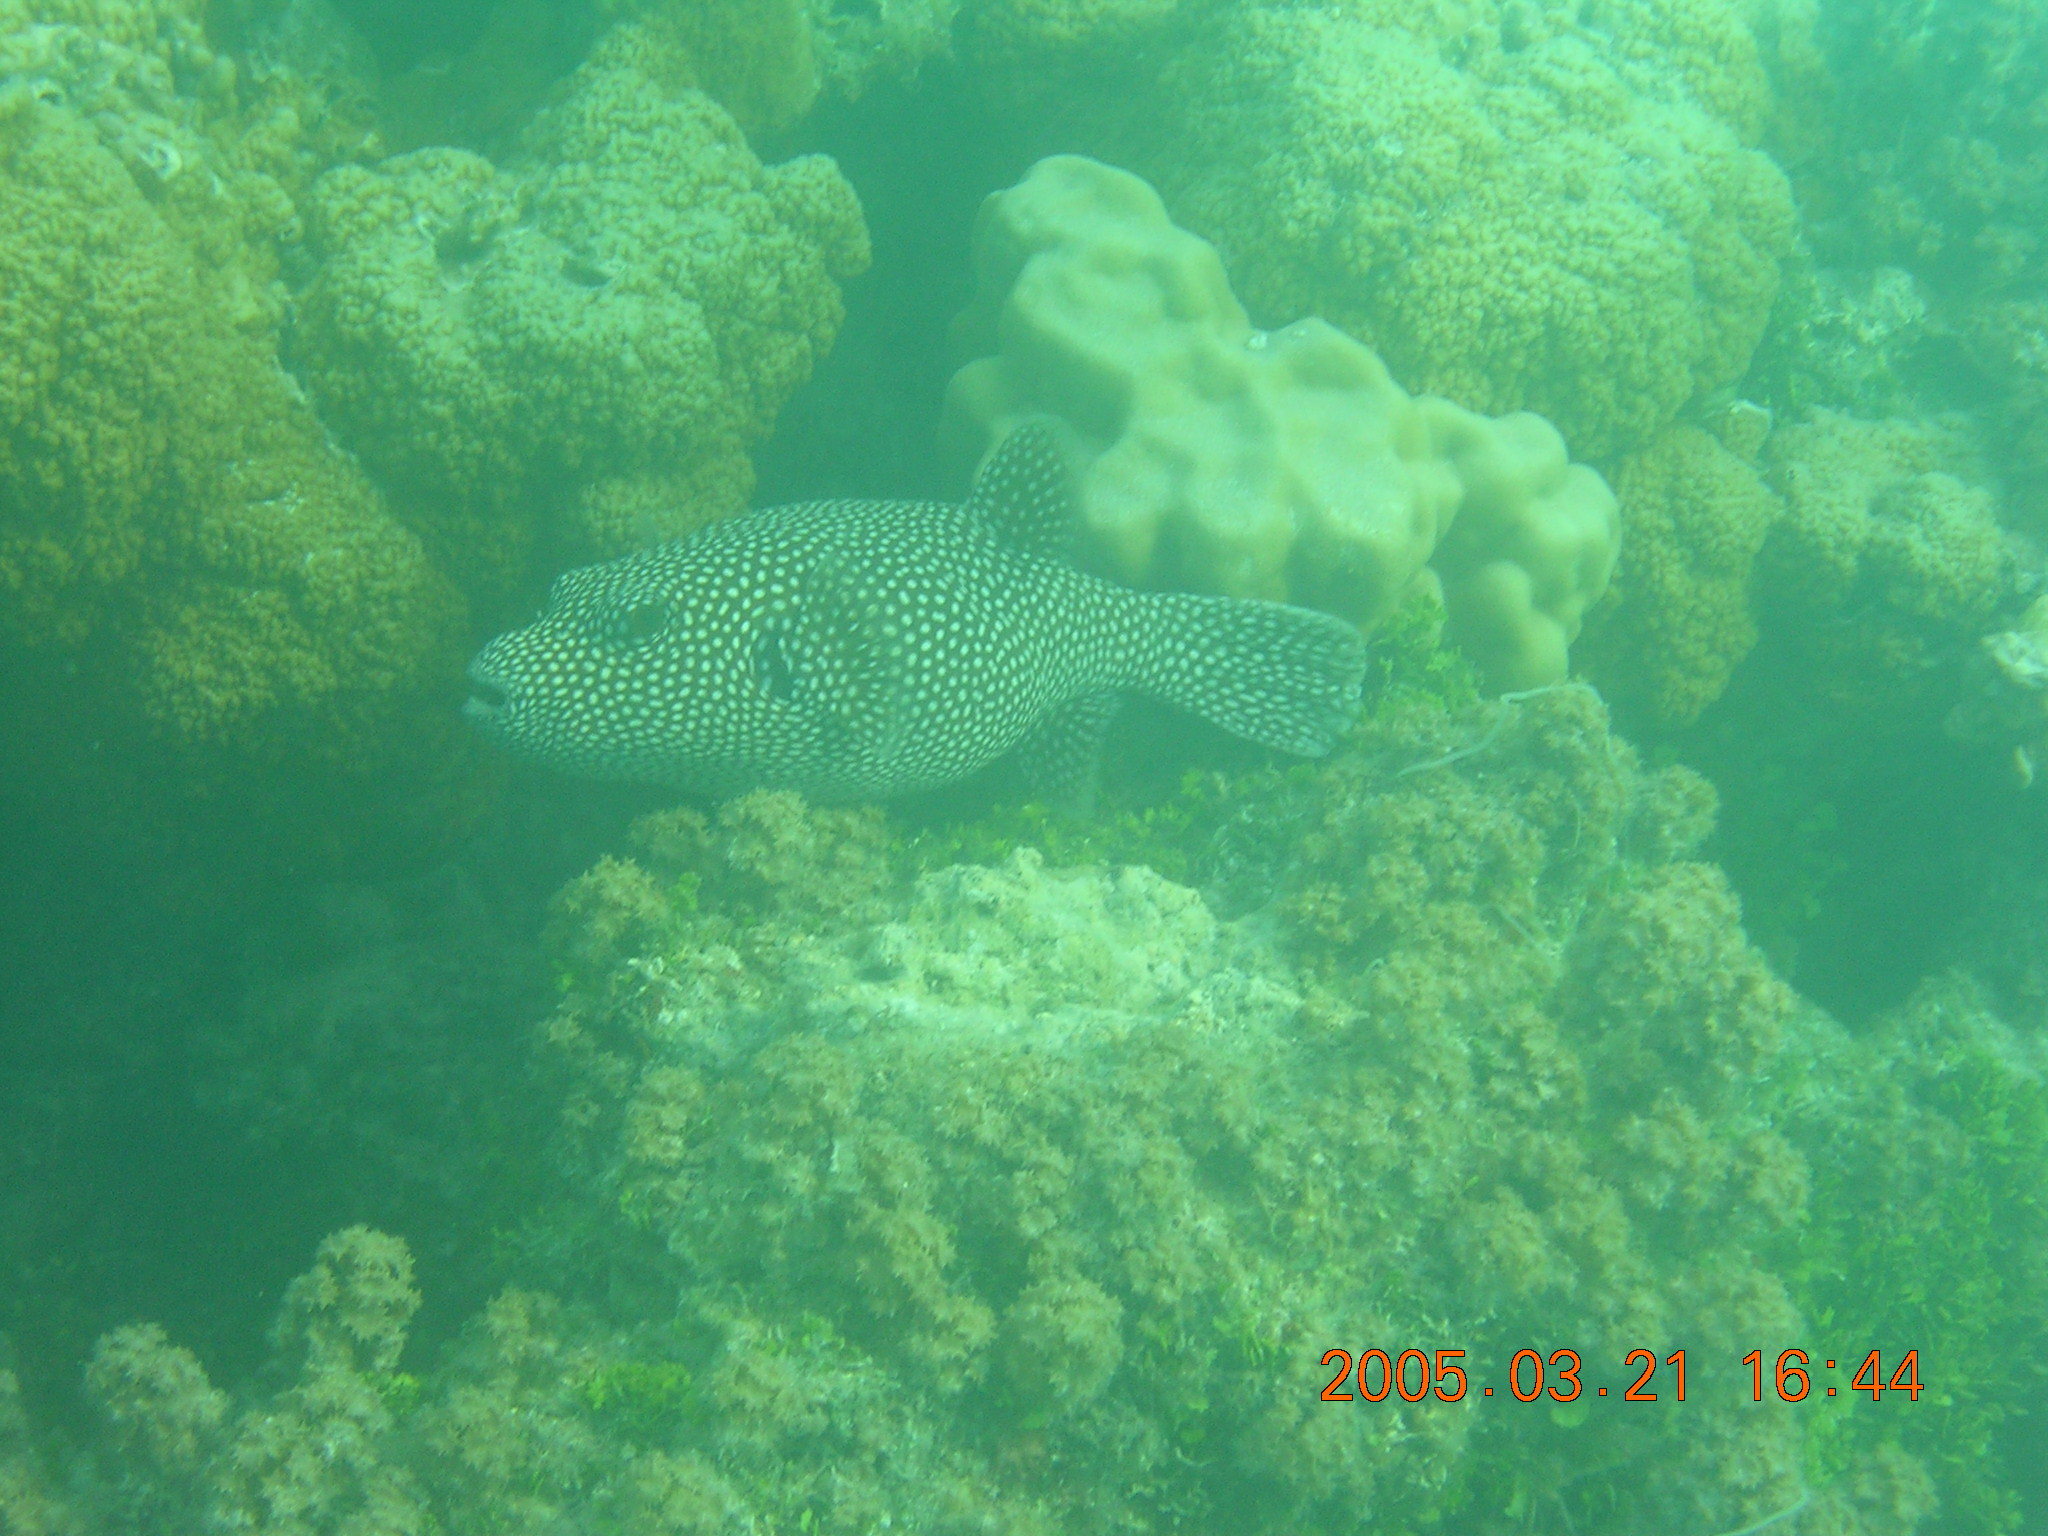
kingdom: Animalia
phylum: Chordata
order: Tetraodontiformes
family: Tetraodontidae
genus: Arothron
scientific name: Arothron meleagris
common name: Guinea-fowl pufferfish
